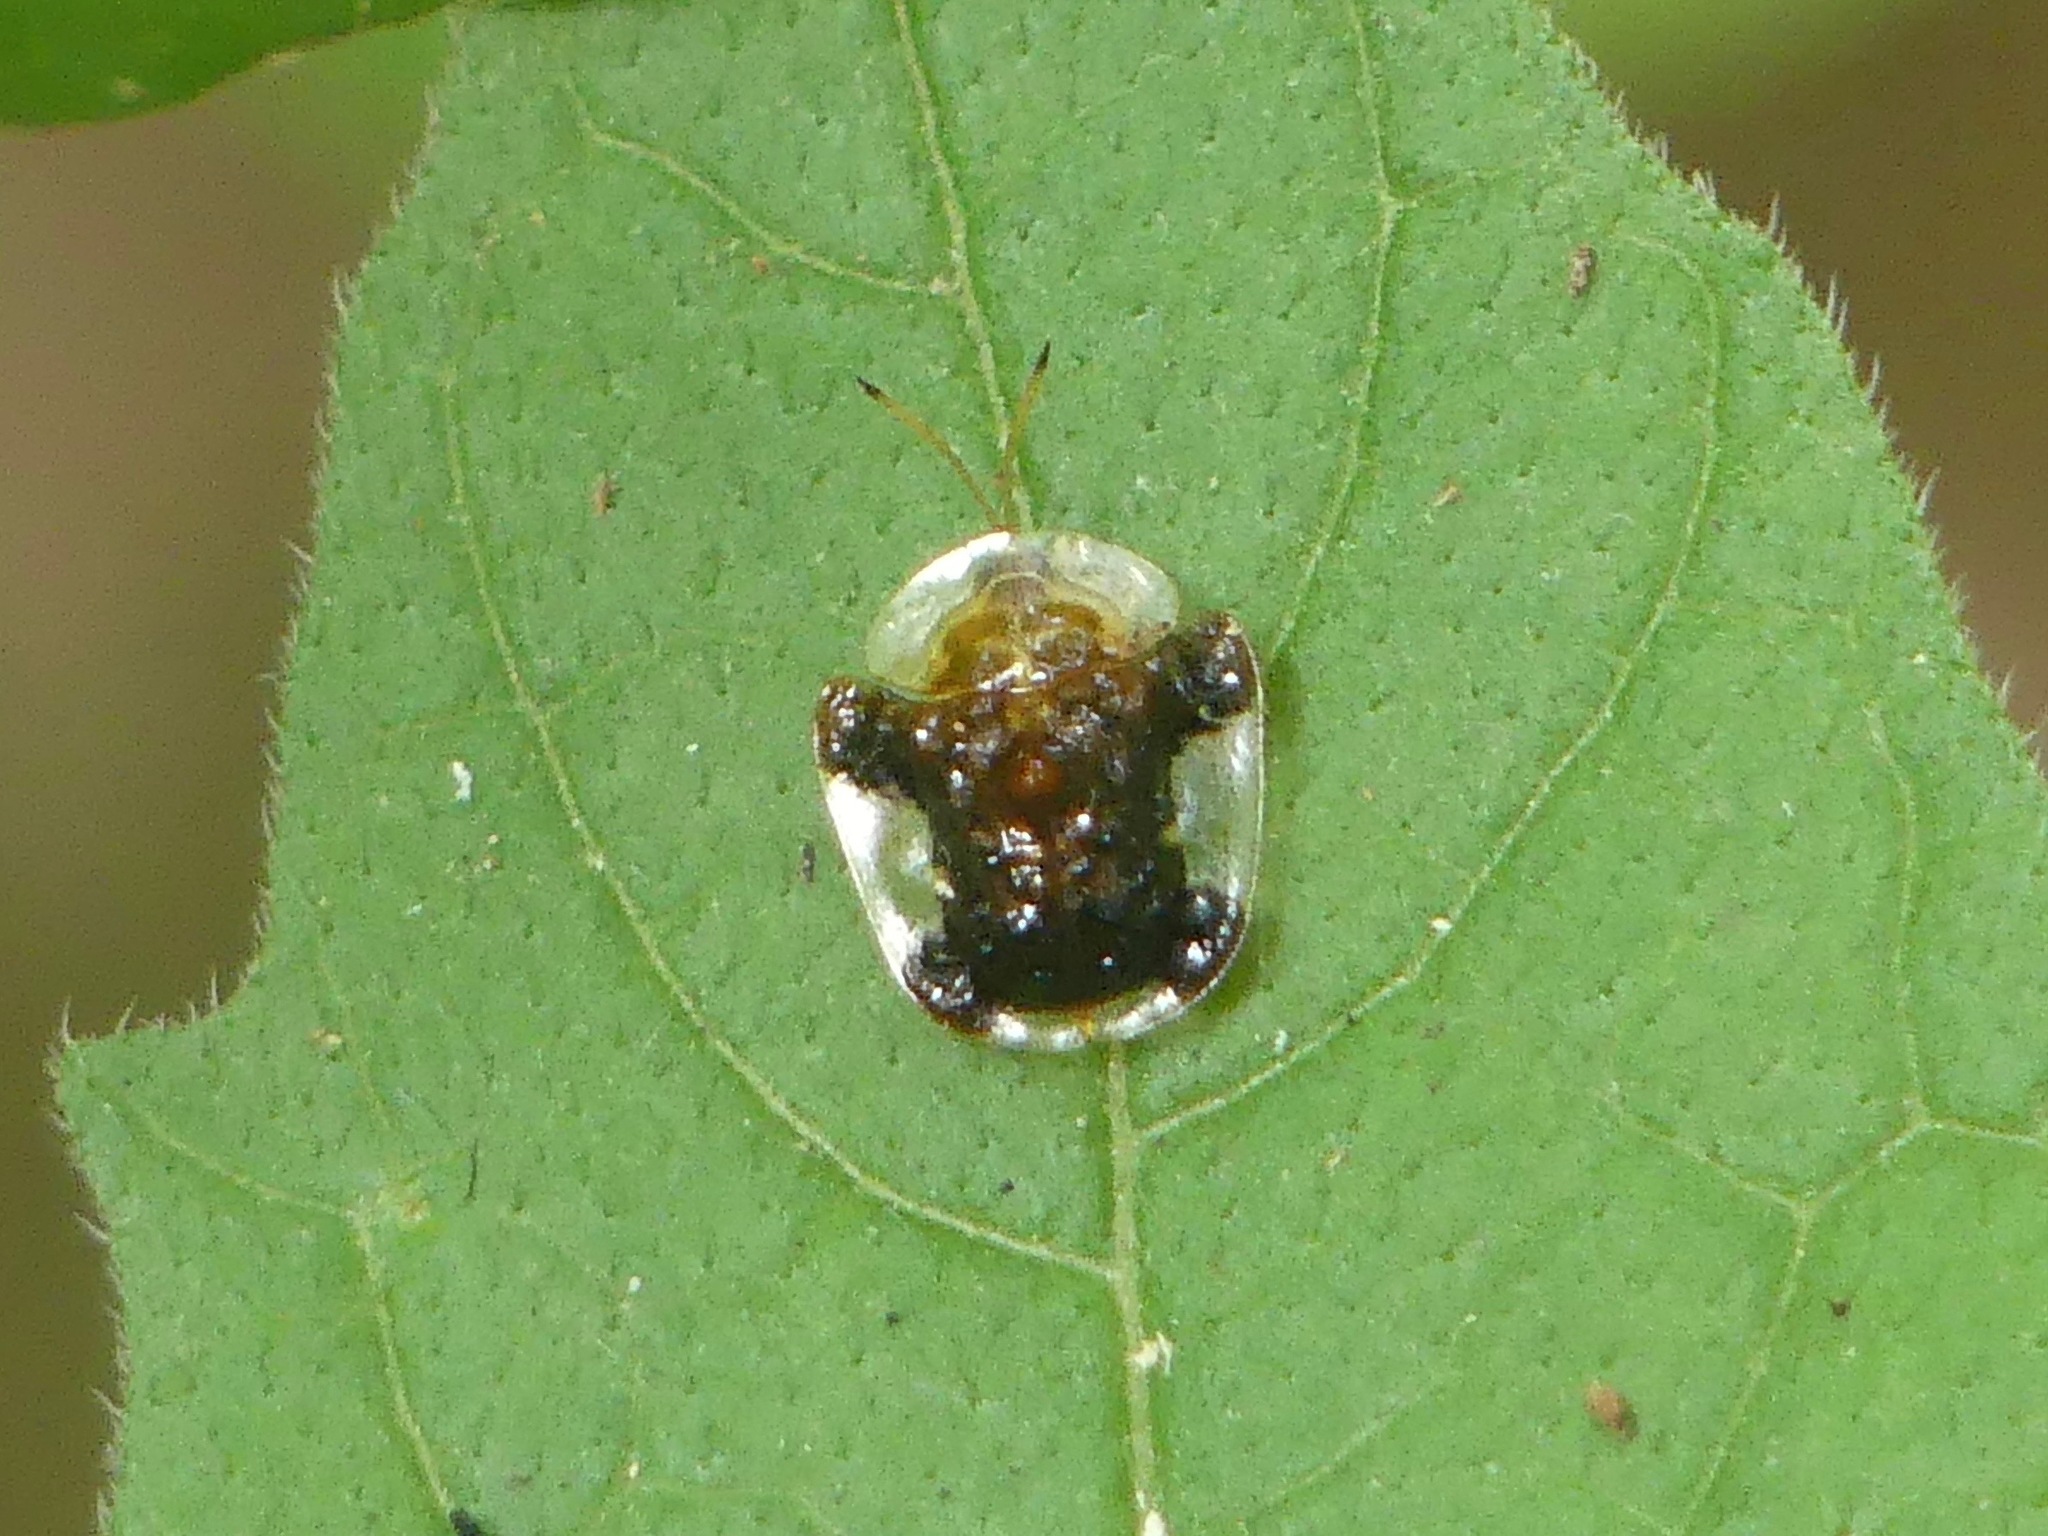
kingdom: Animalia
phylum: Arthropoda
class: Insecta
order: Coleoptera
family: Chrysomelidae
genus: Helocassis
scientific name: Helocassis clavata
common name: Clavate tortoise beetle
